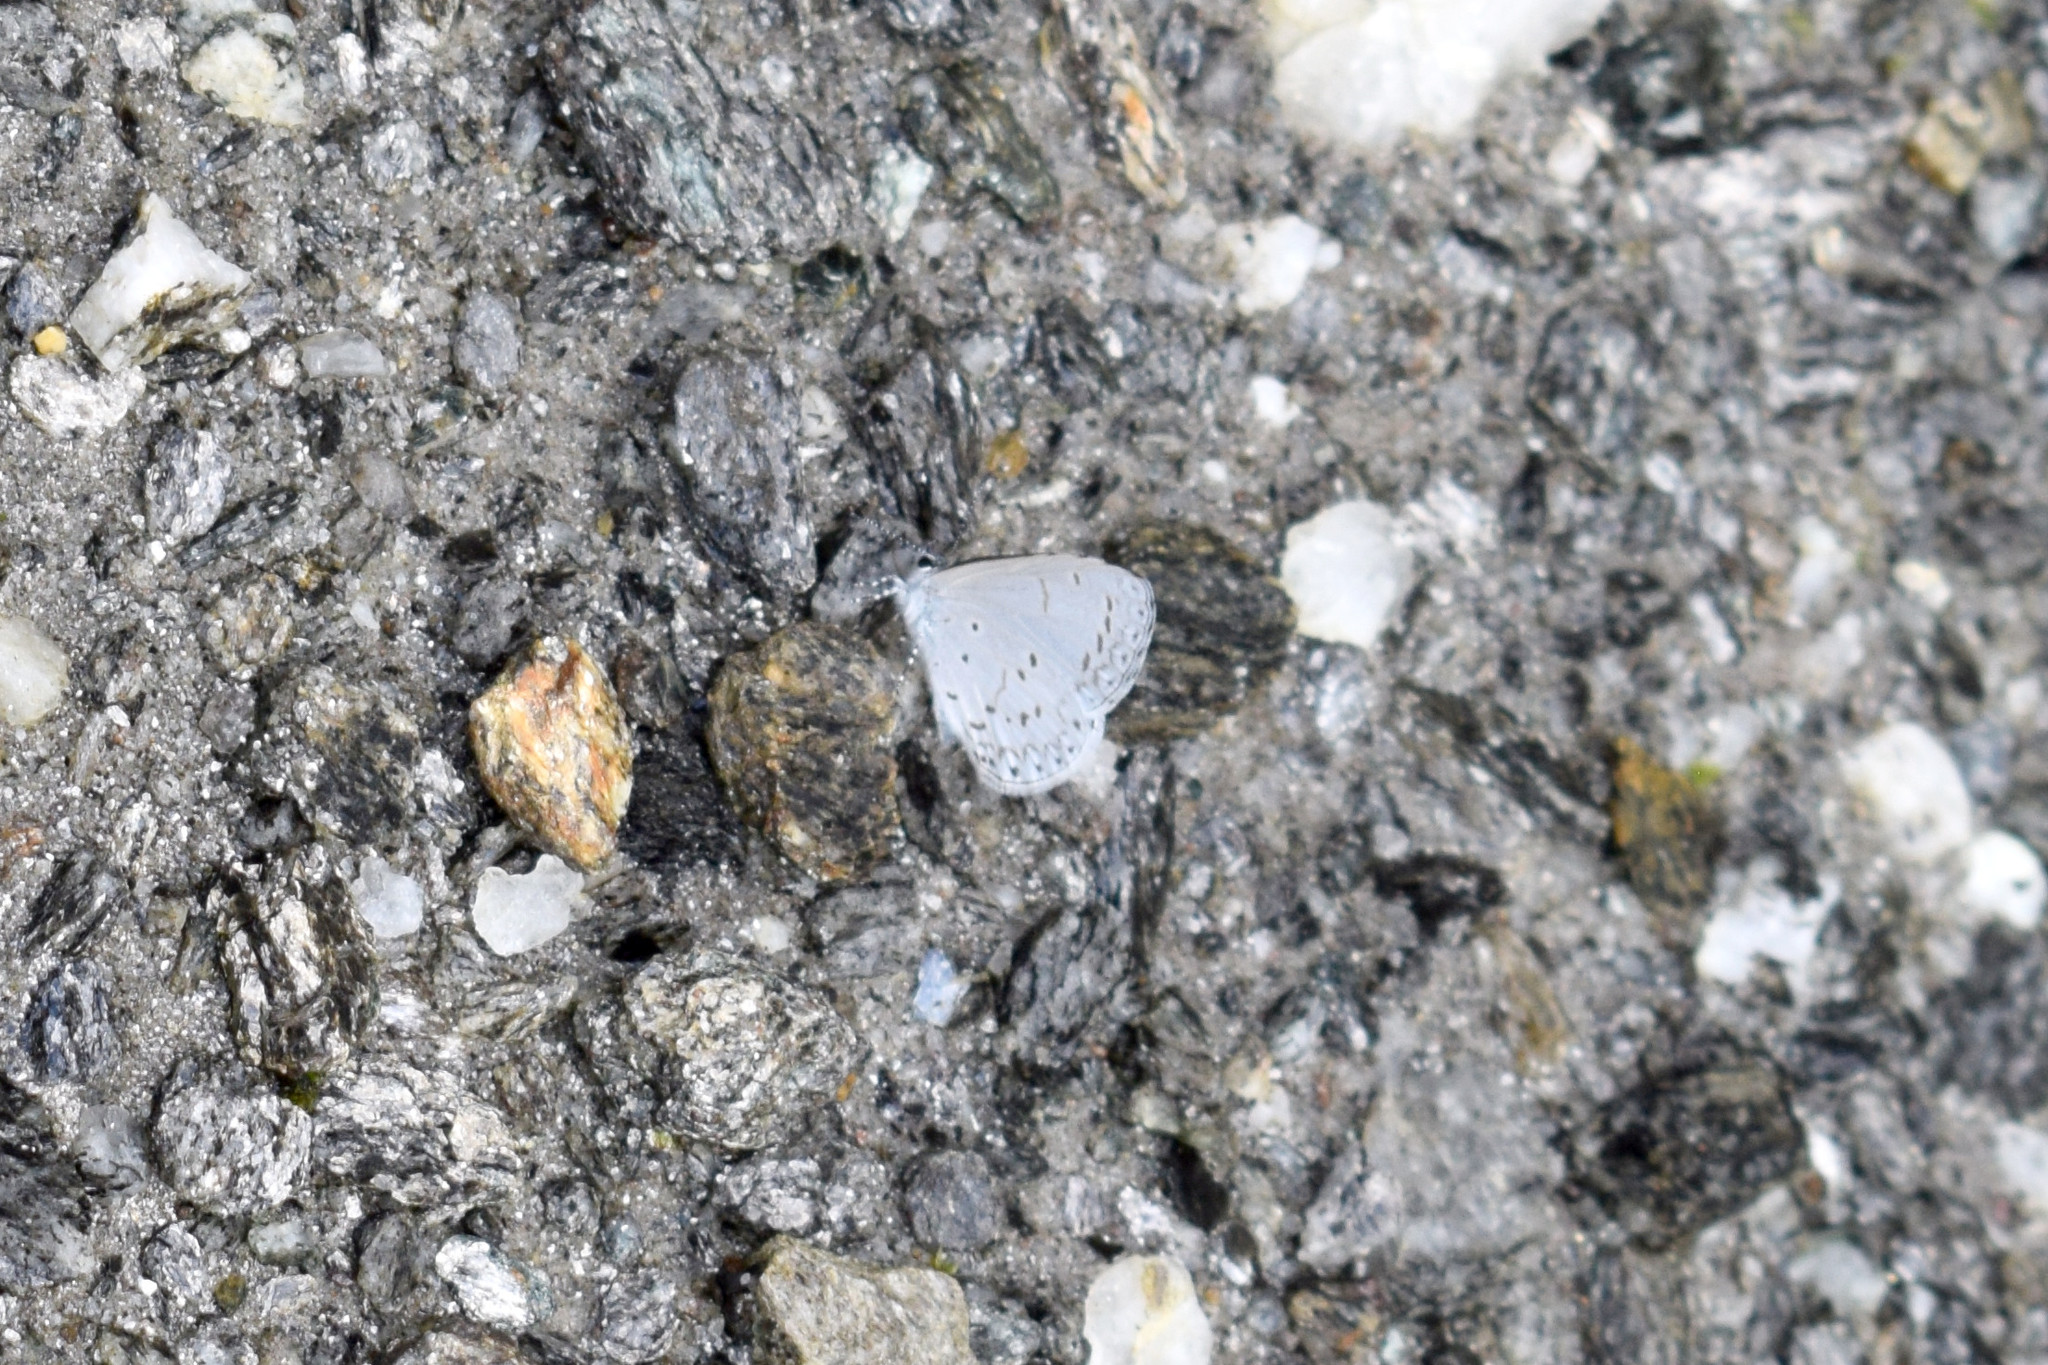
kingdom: Animalia
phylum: Arthropoda
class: Insecta
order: Lepidoptera
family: Lycaenidae
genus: Udara
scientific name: Udara dilectus
